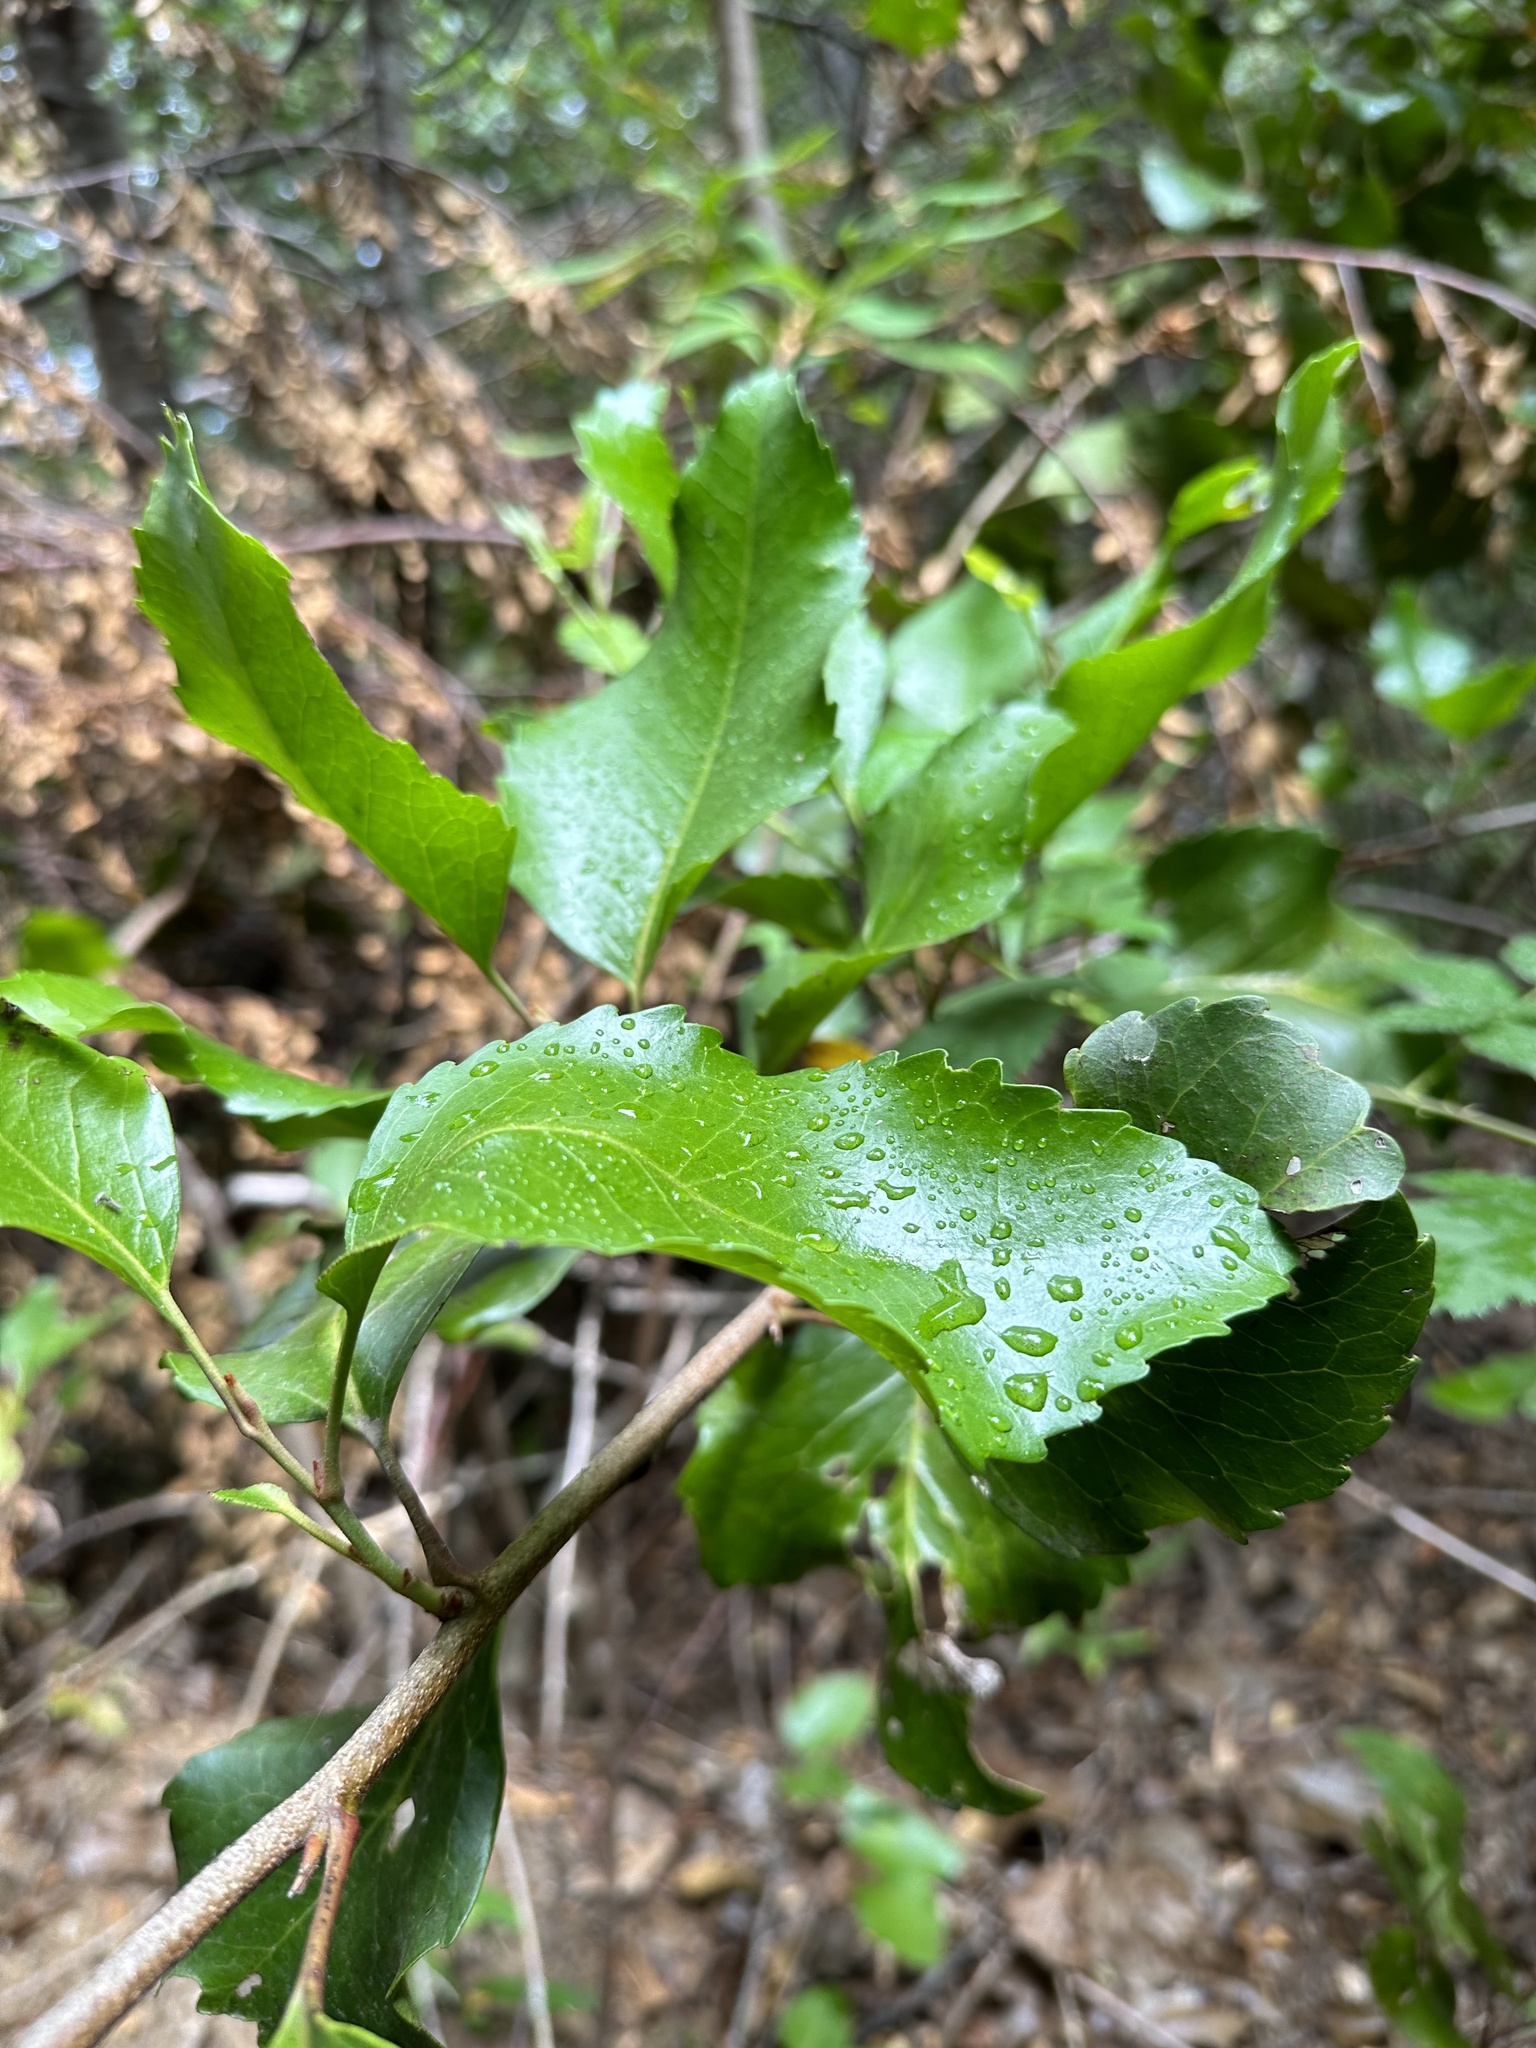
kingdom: Plantae
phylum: Tracheophyta
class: Magnoliopsida
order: Proteales
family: Proteaceae
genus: Lomatia
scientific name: Lomatia hirsuta
